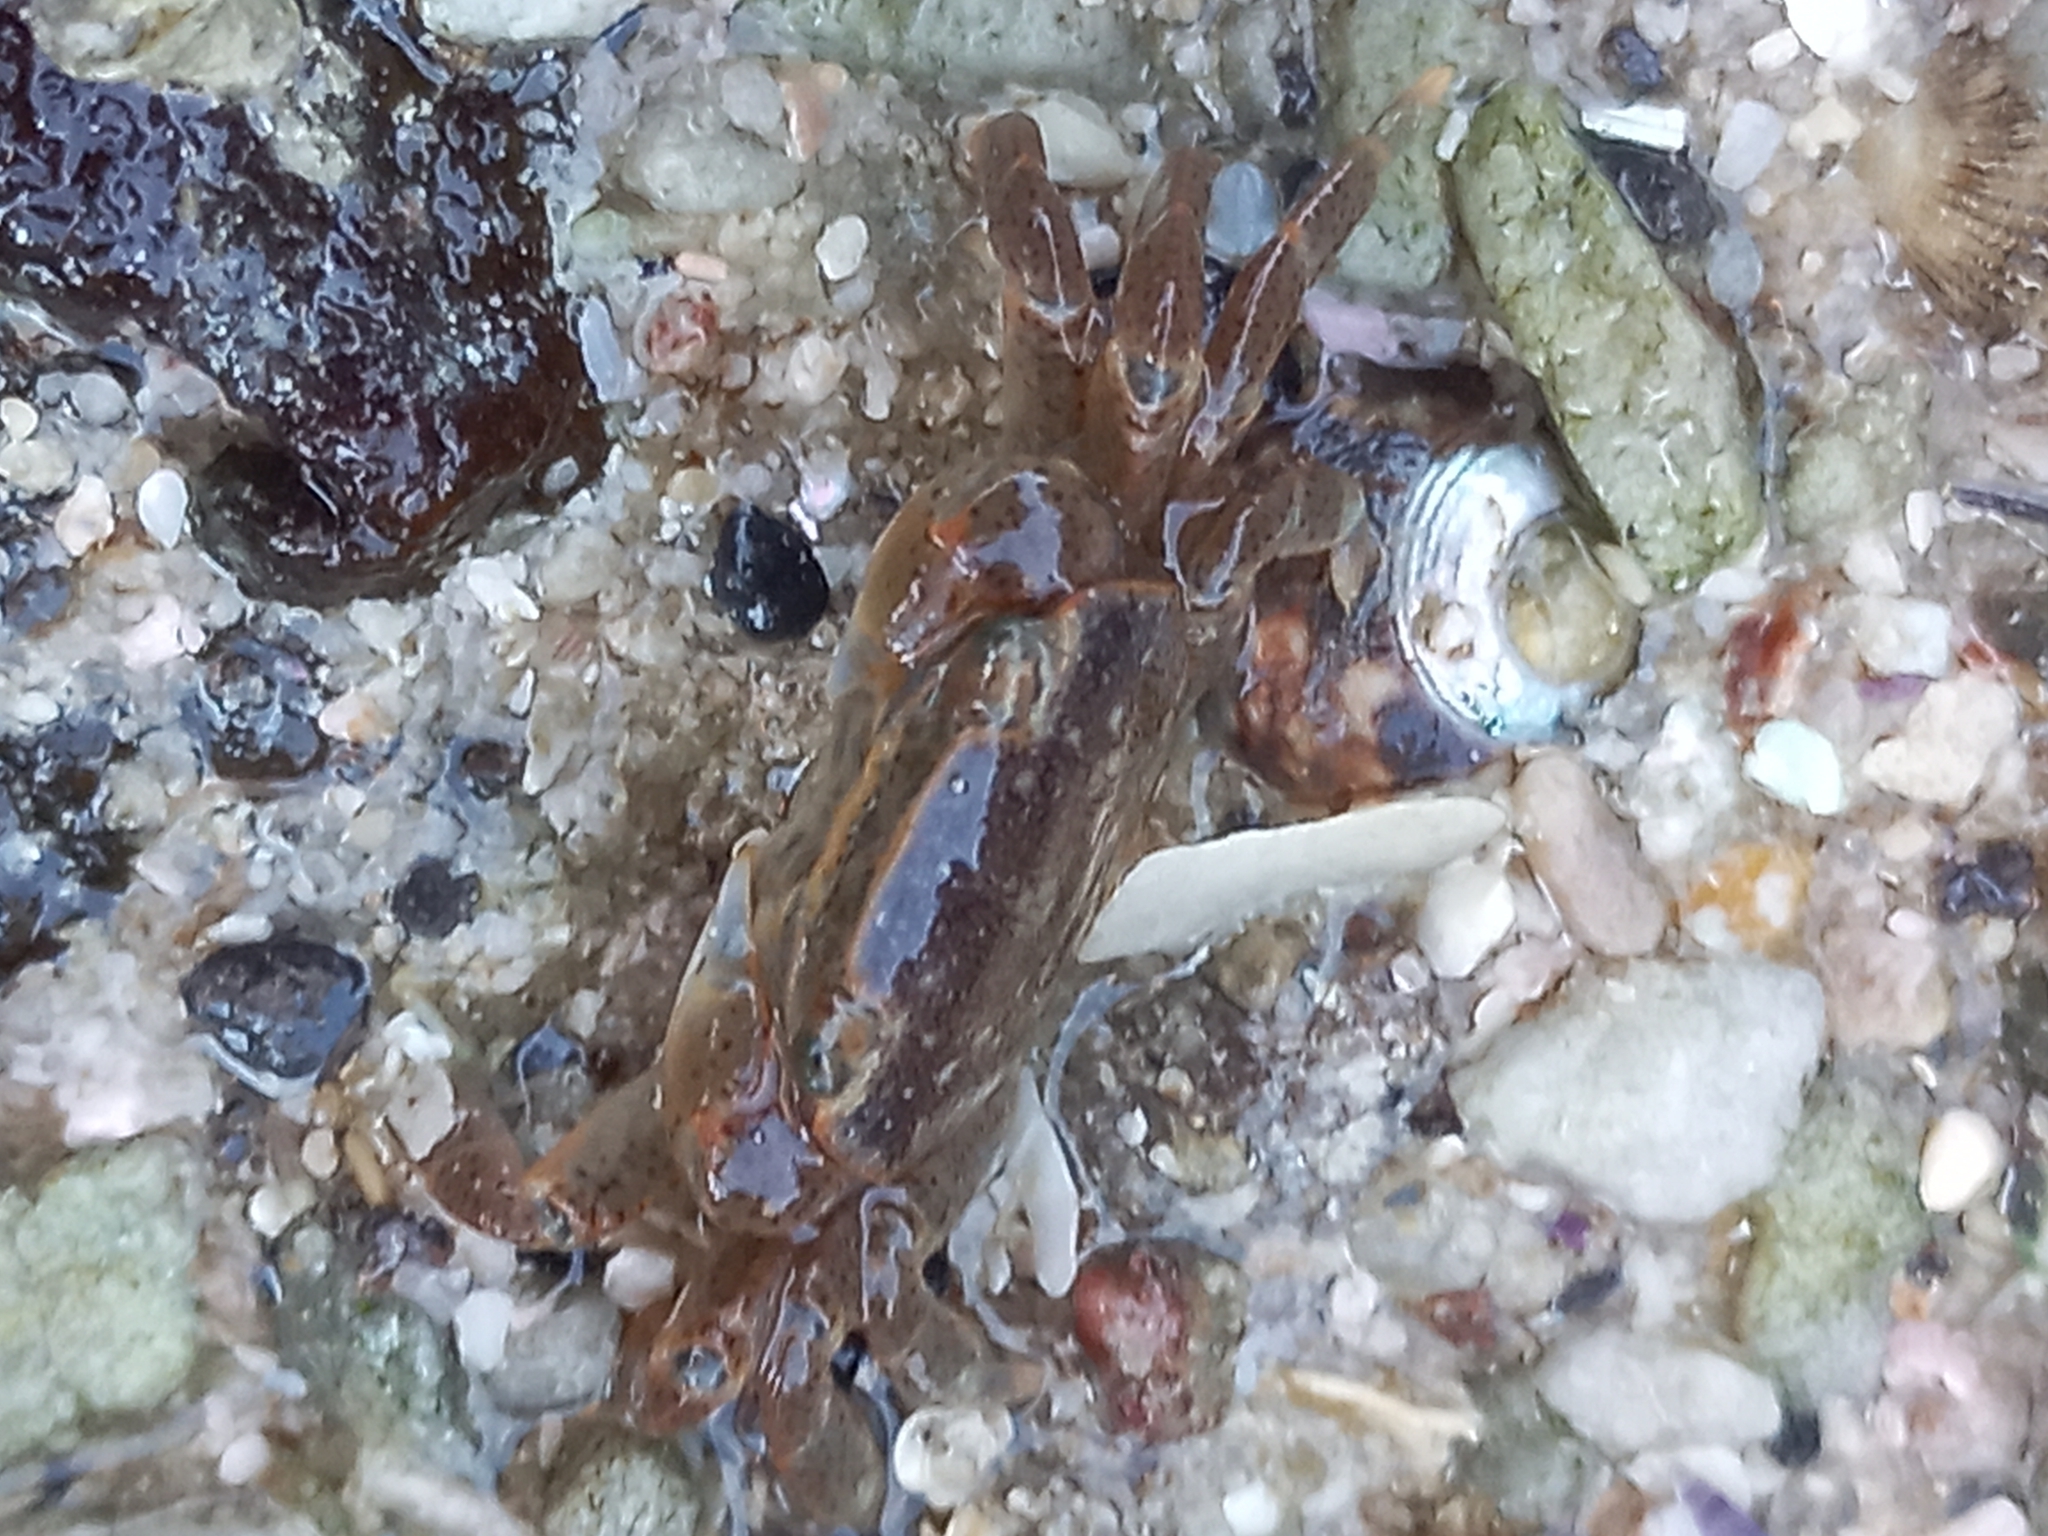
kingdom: Animalia
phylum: Arthropoda
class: Malacostraca
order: Decapoda
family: Varunidae
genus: Cyclograpsus
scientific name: Cyclograpsus punctatus
